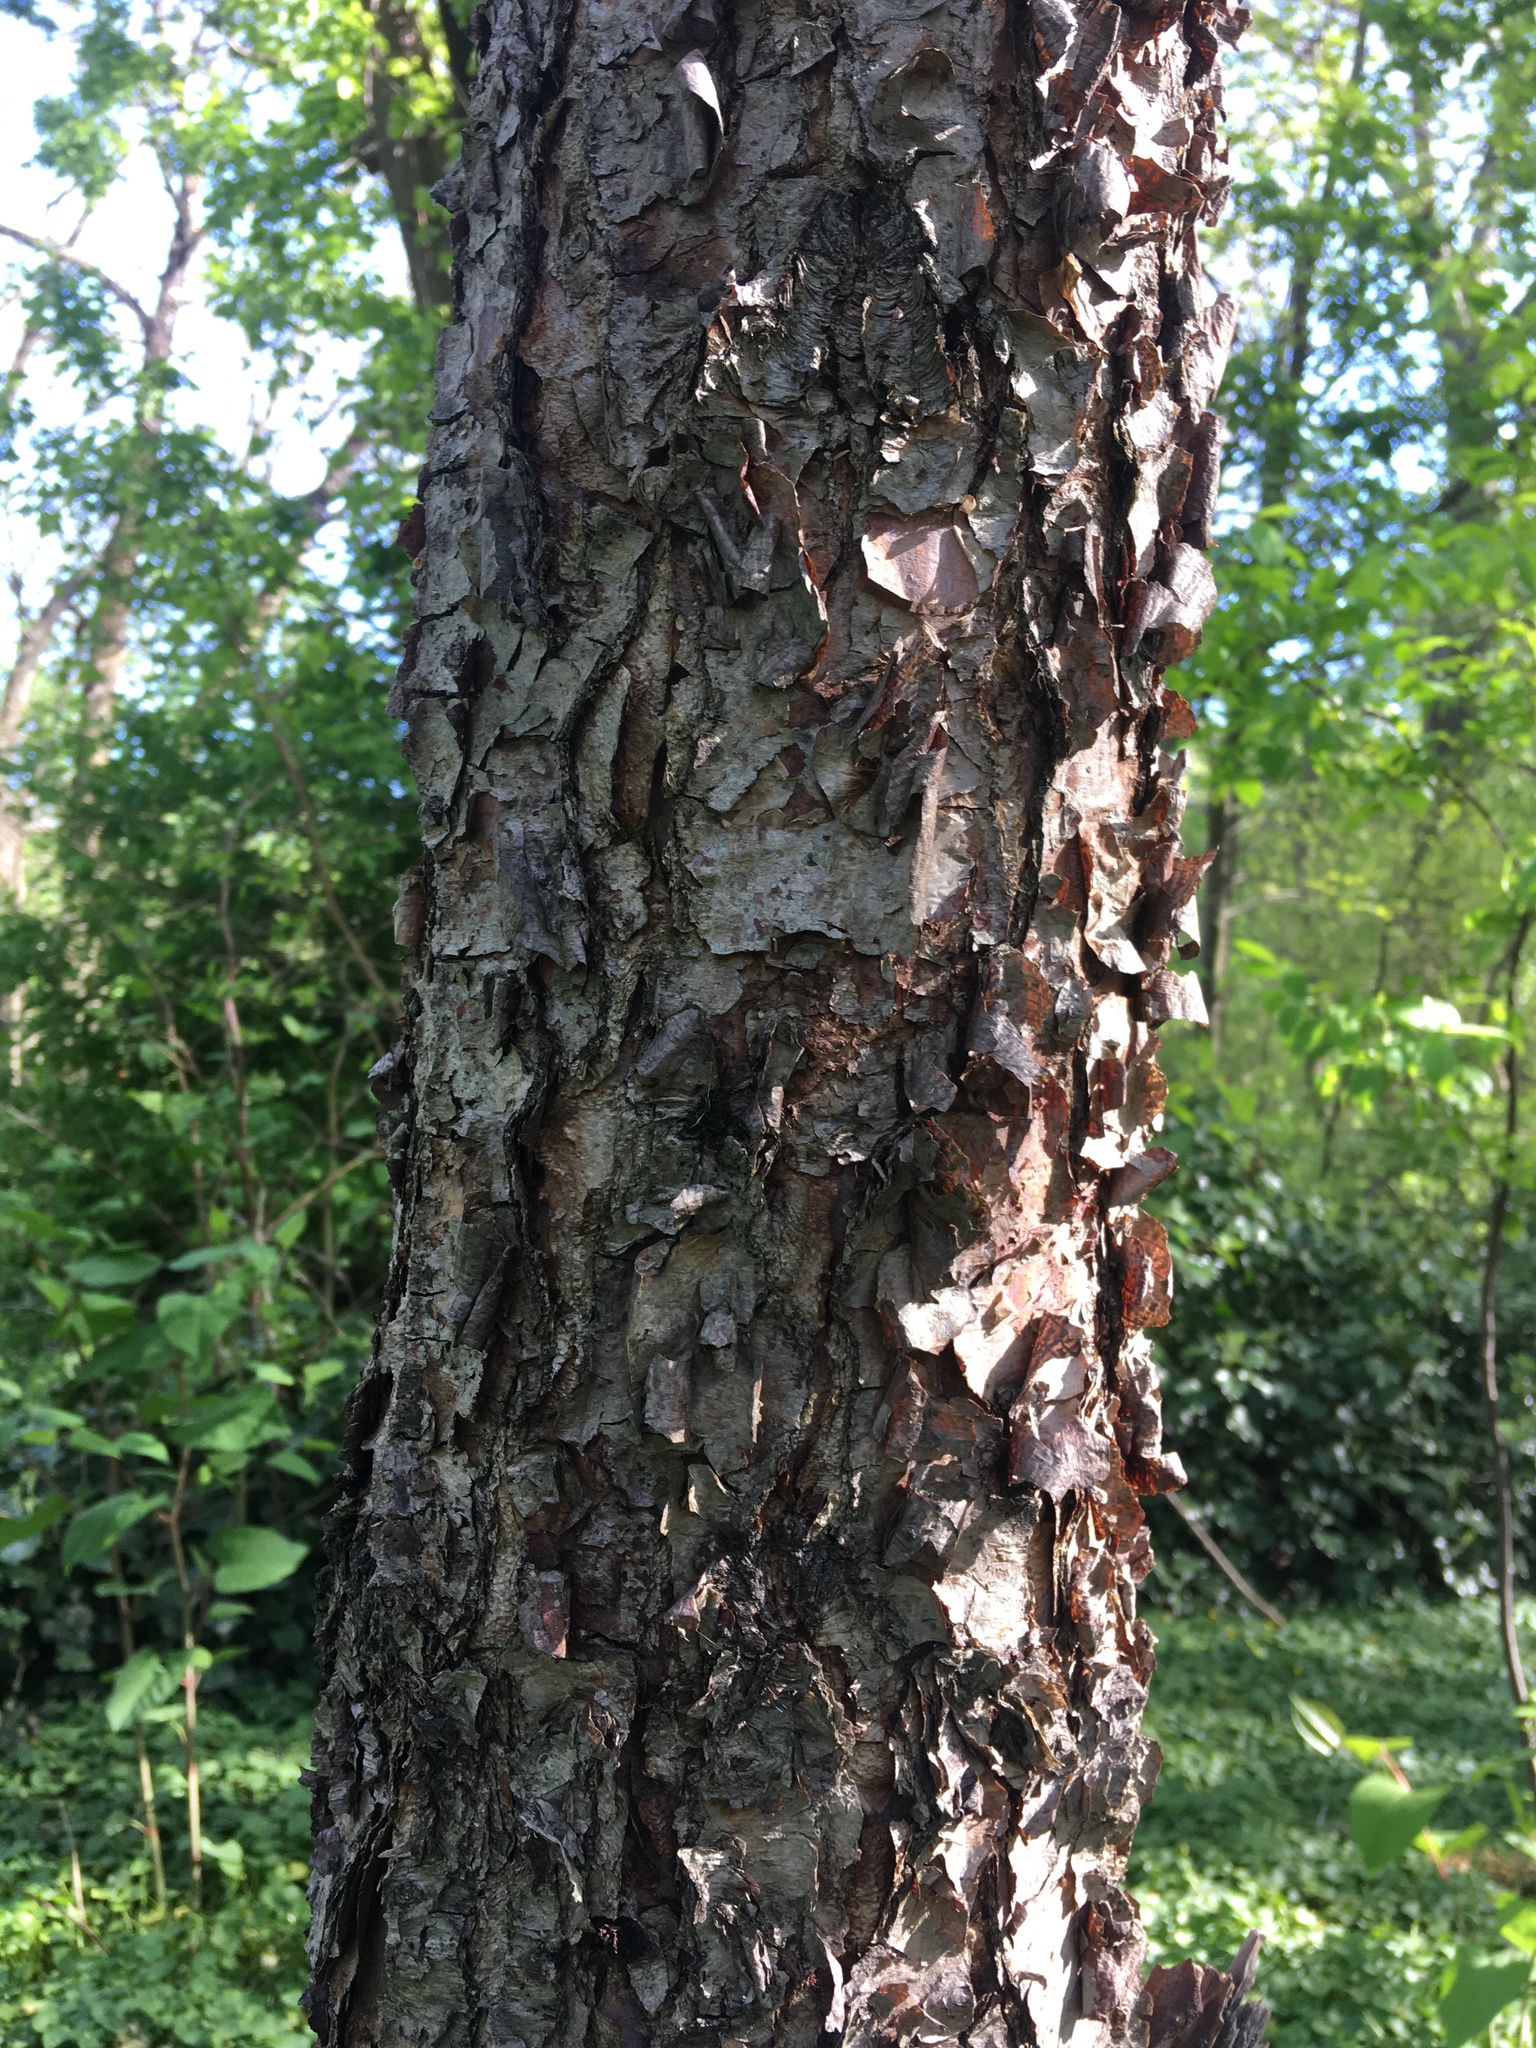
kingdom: Plantae
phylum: Tracheophyta
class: Magnoliopsida
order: Fagales
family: Betulaceae
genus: Betula
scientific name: Betula nigra
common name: Black birch
